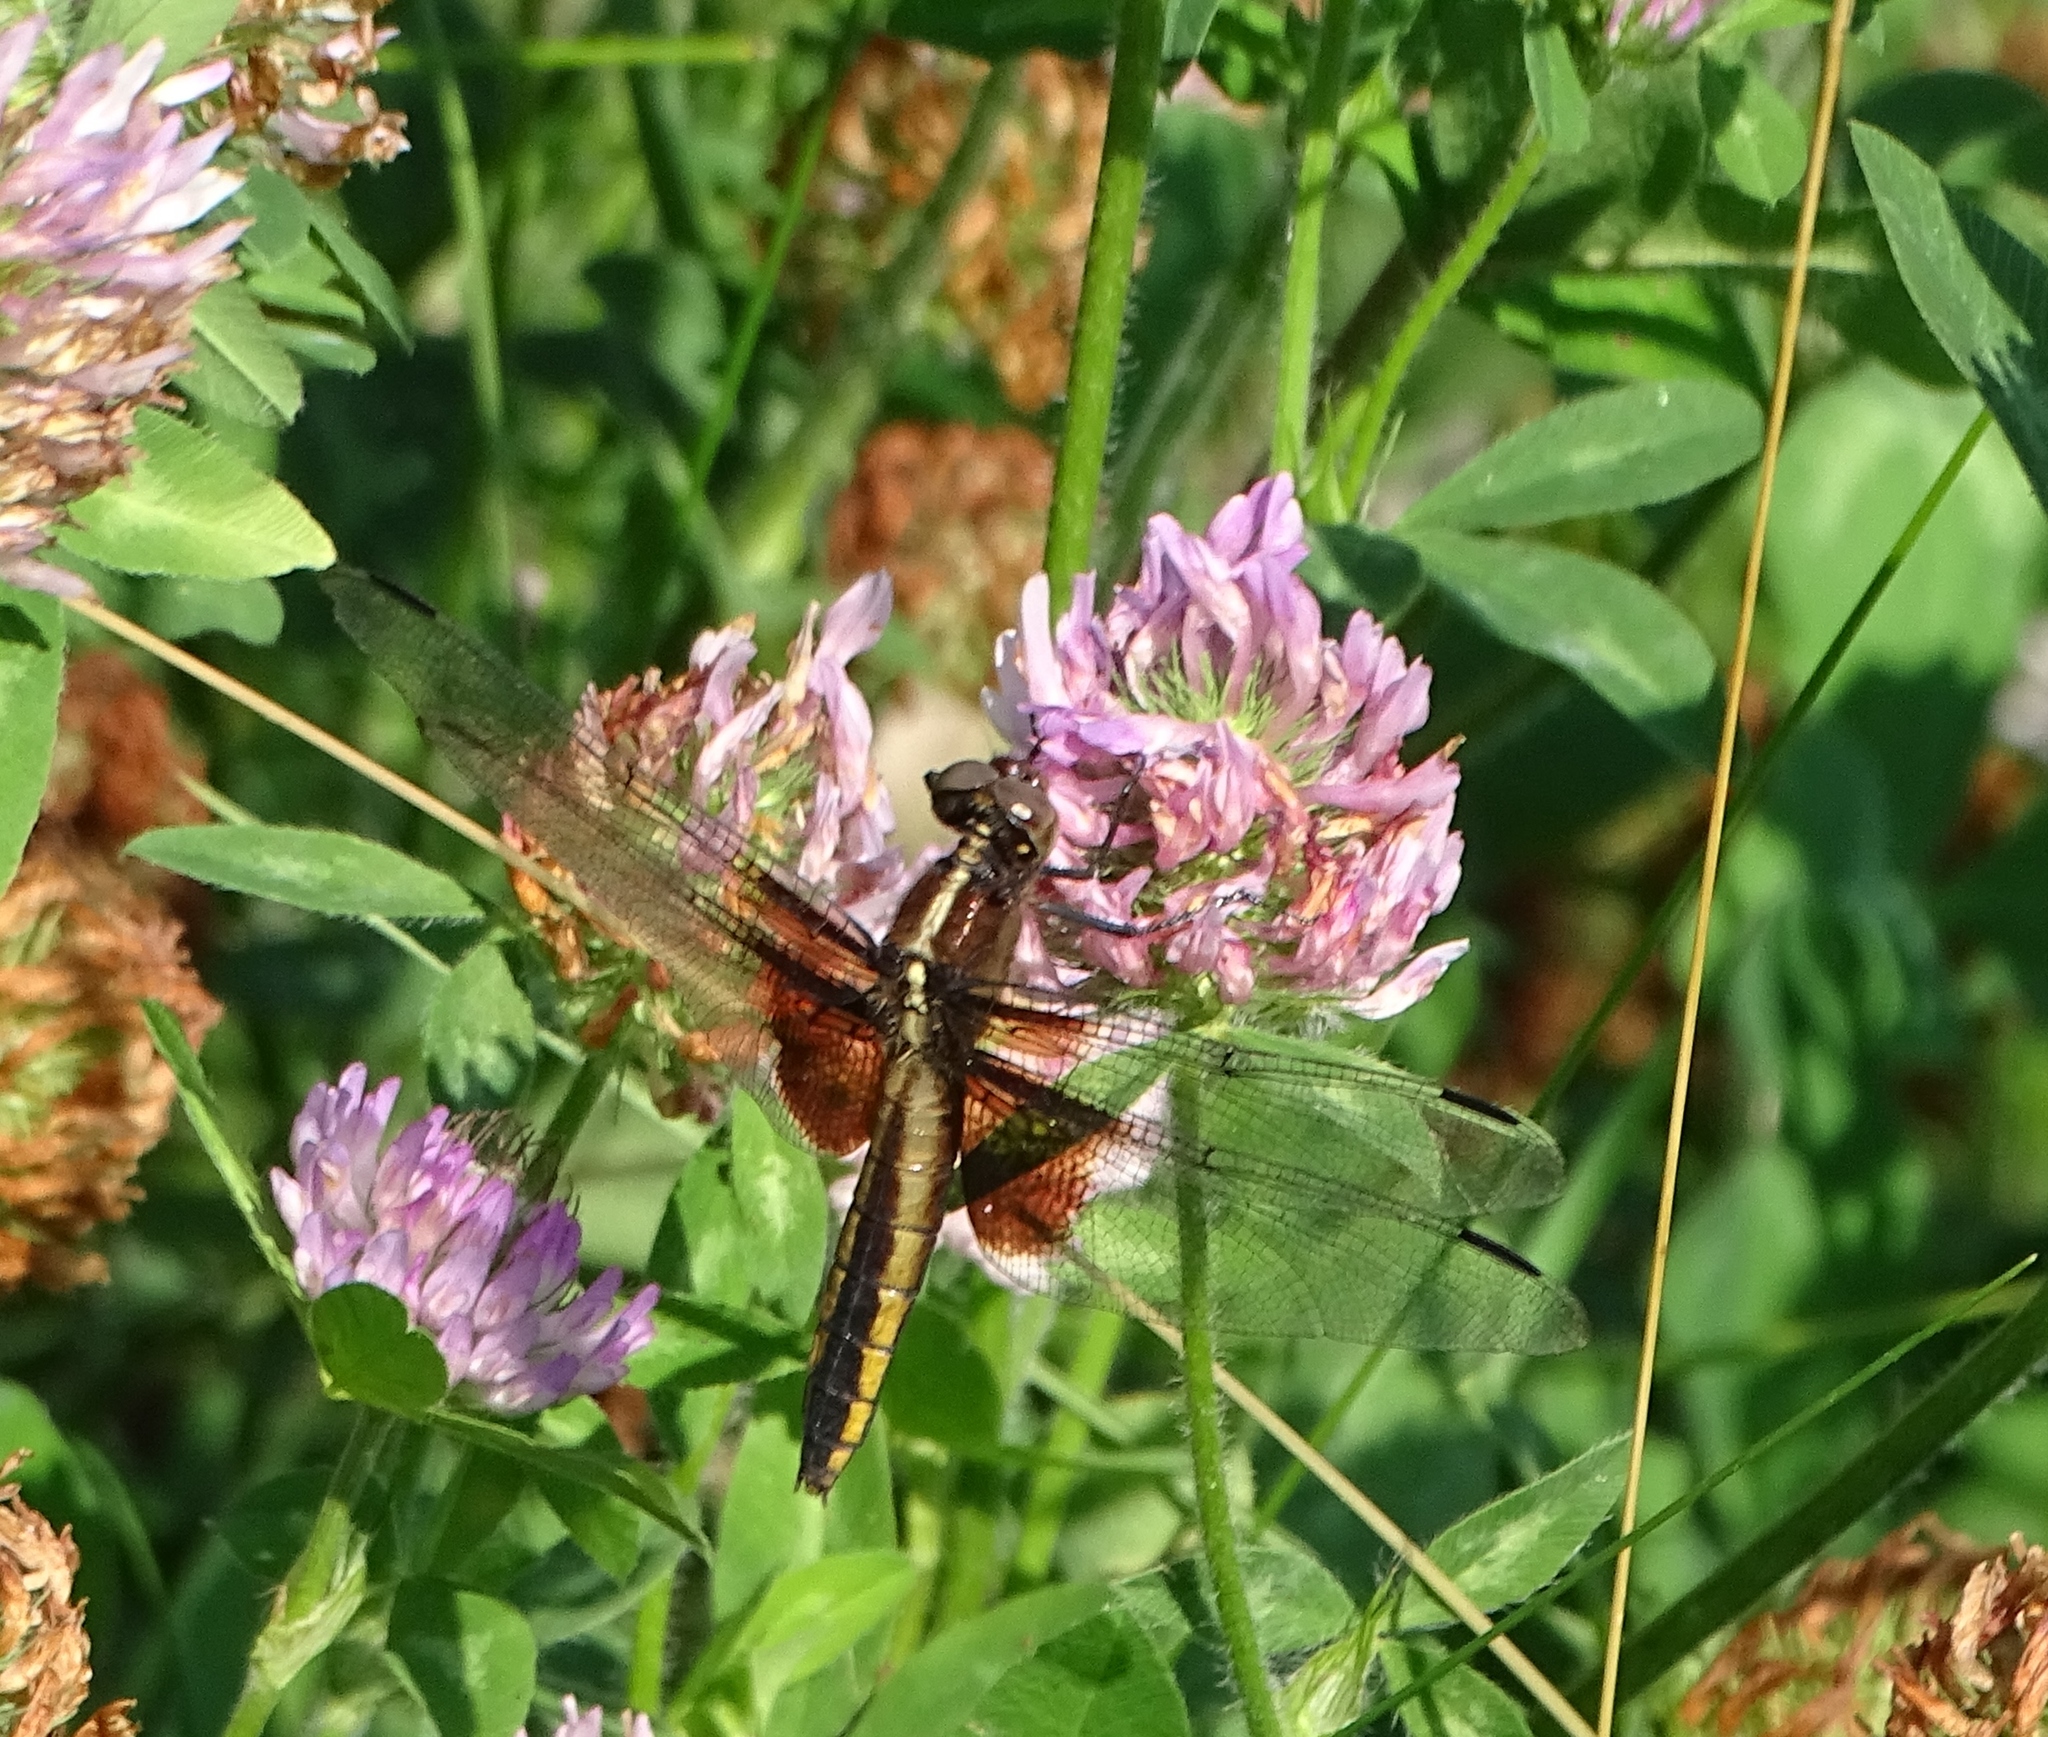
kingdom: Animalia
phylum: Arthropoda
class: Insecta
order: Odonata
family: Libellulidae
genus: Libellula
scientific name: Libellula luctuosa
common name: Widow skimmer
